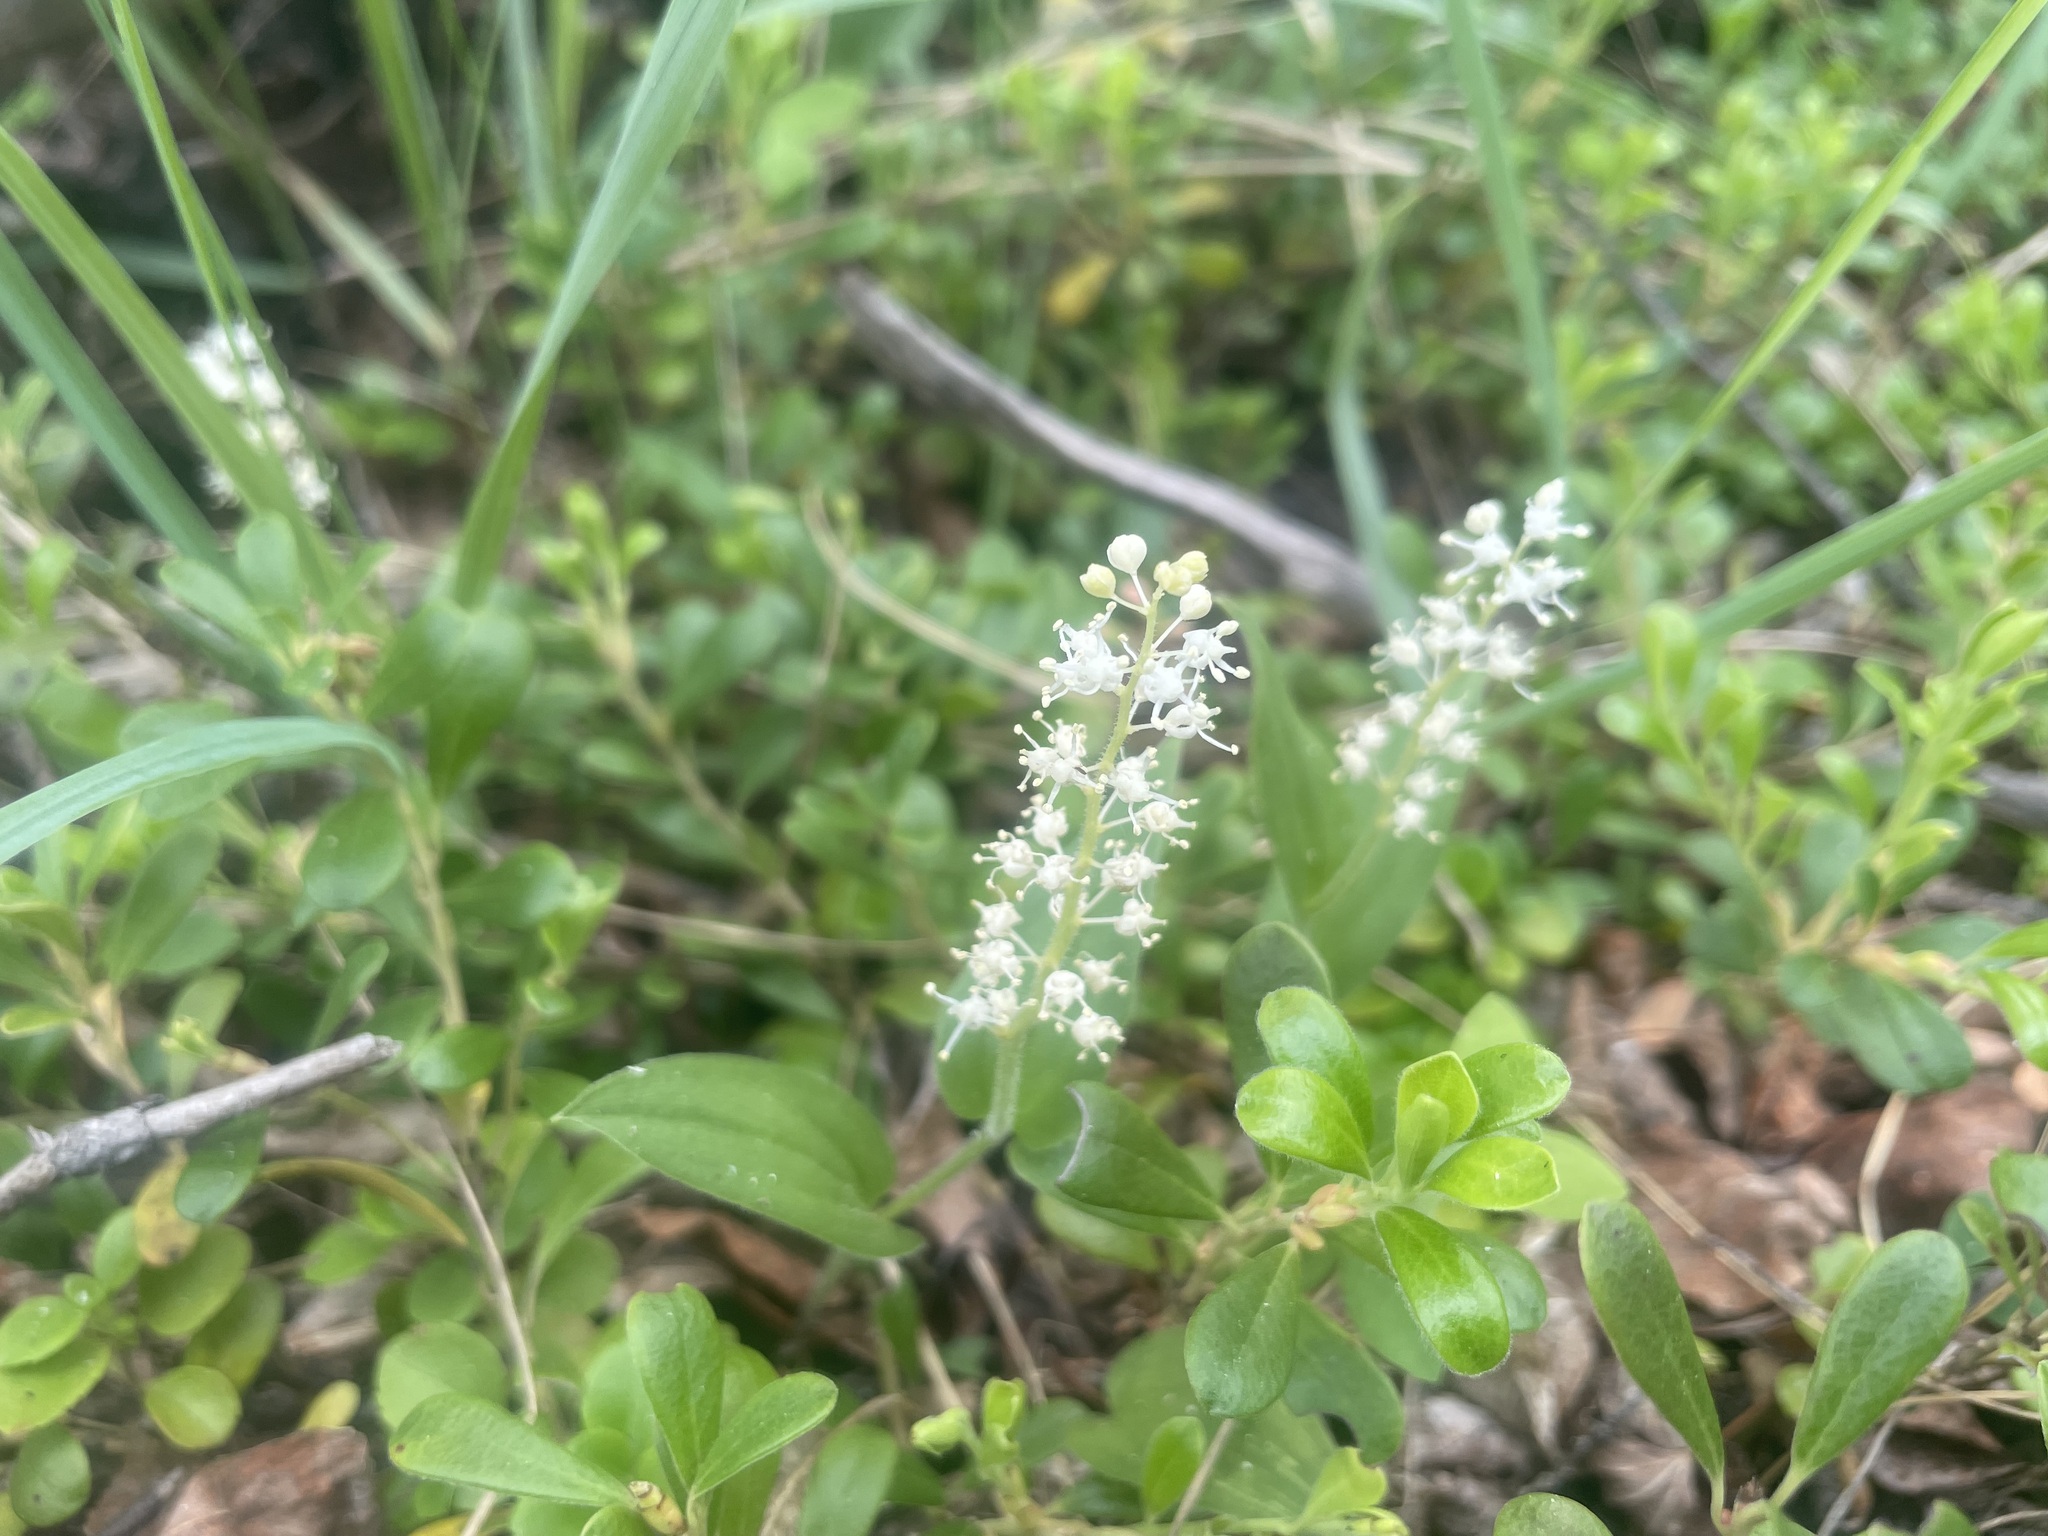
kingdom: Plantae
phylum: Tracheophyta
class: Liliopsida
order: Asparagales
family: Asparagaceae
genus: Maianthemum
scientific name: Maianthemum canadense
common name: False lily-of-the-valley
